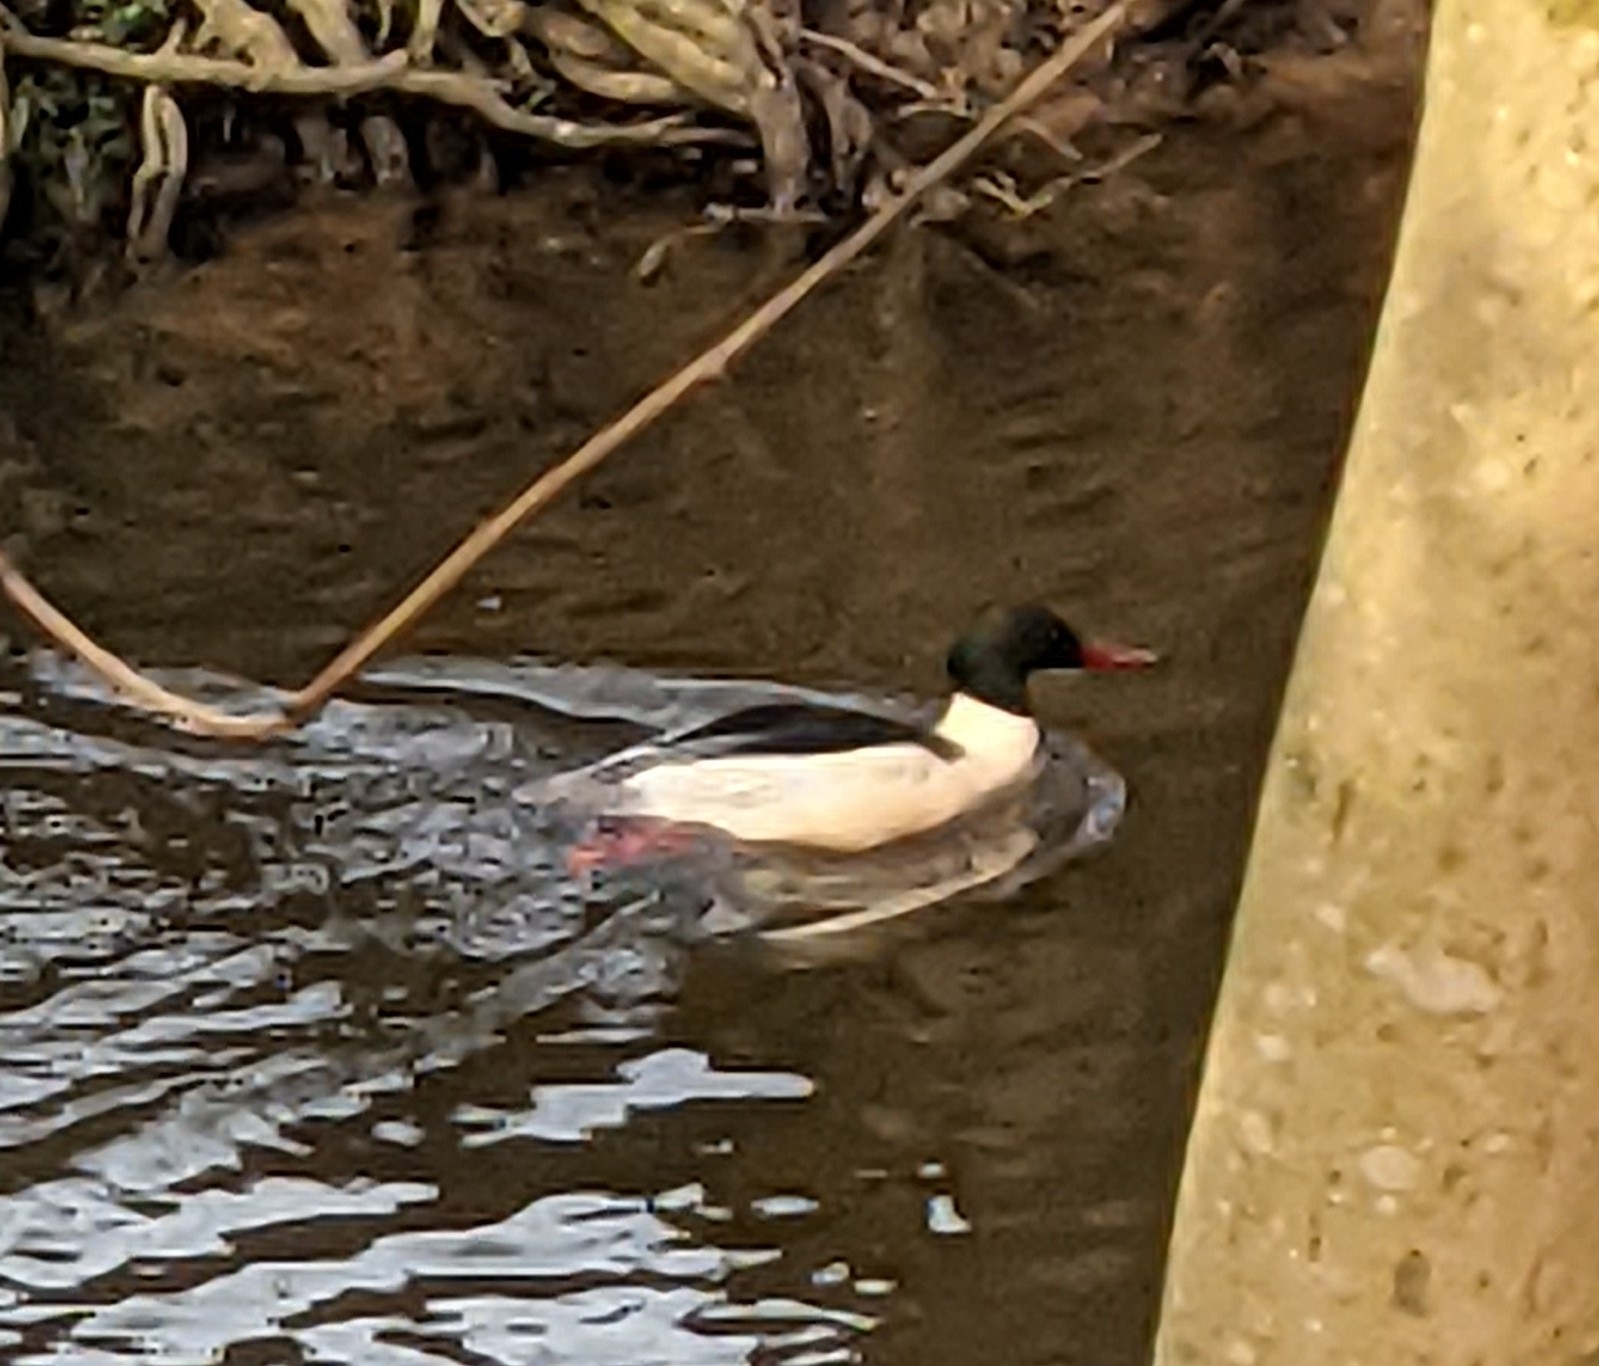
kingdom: Animalia
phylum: Chordata
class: Aves
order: Anseriformes
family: Anatidae
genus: Mergus
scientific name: Mergus merganser
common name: Common merganser
